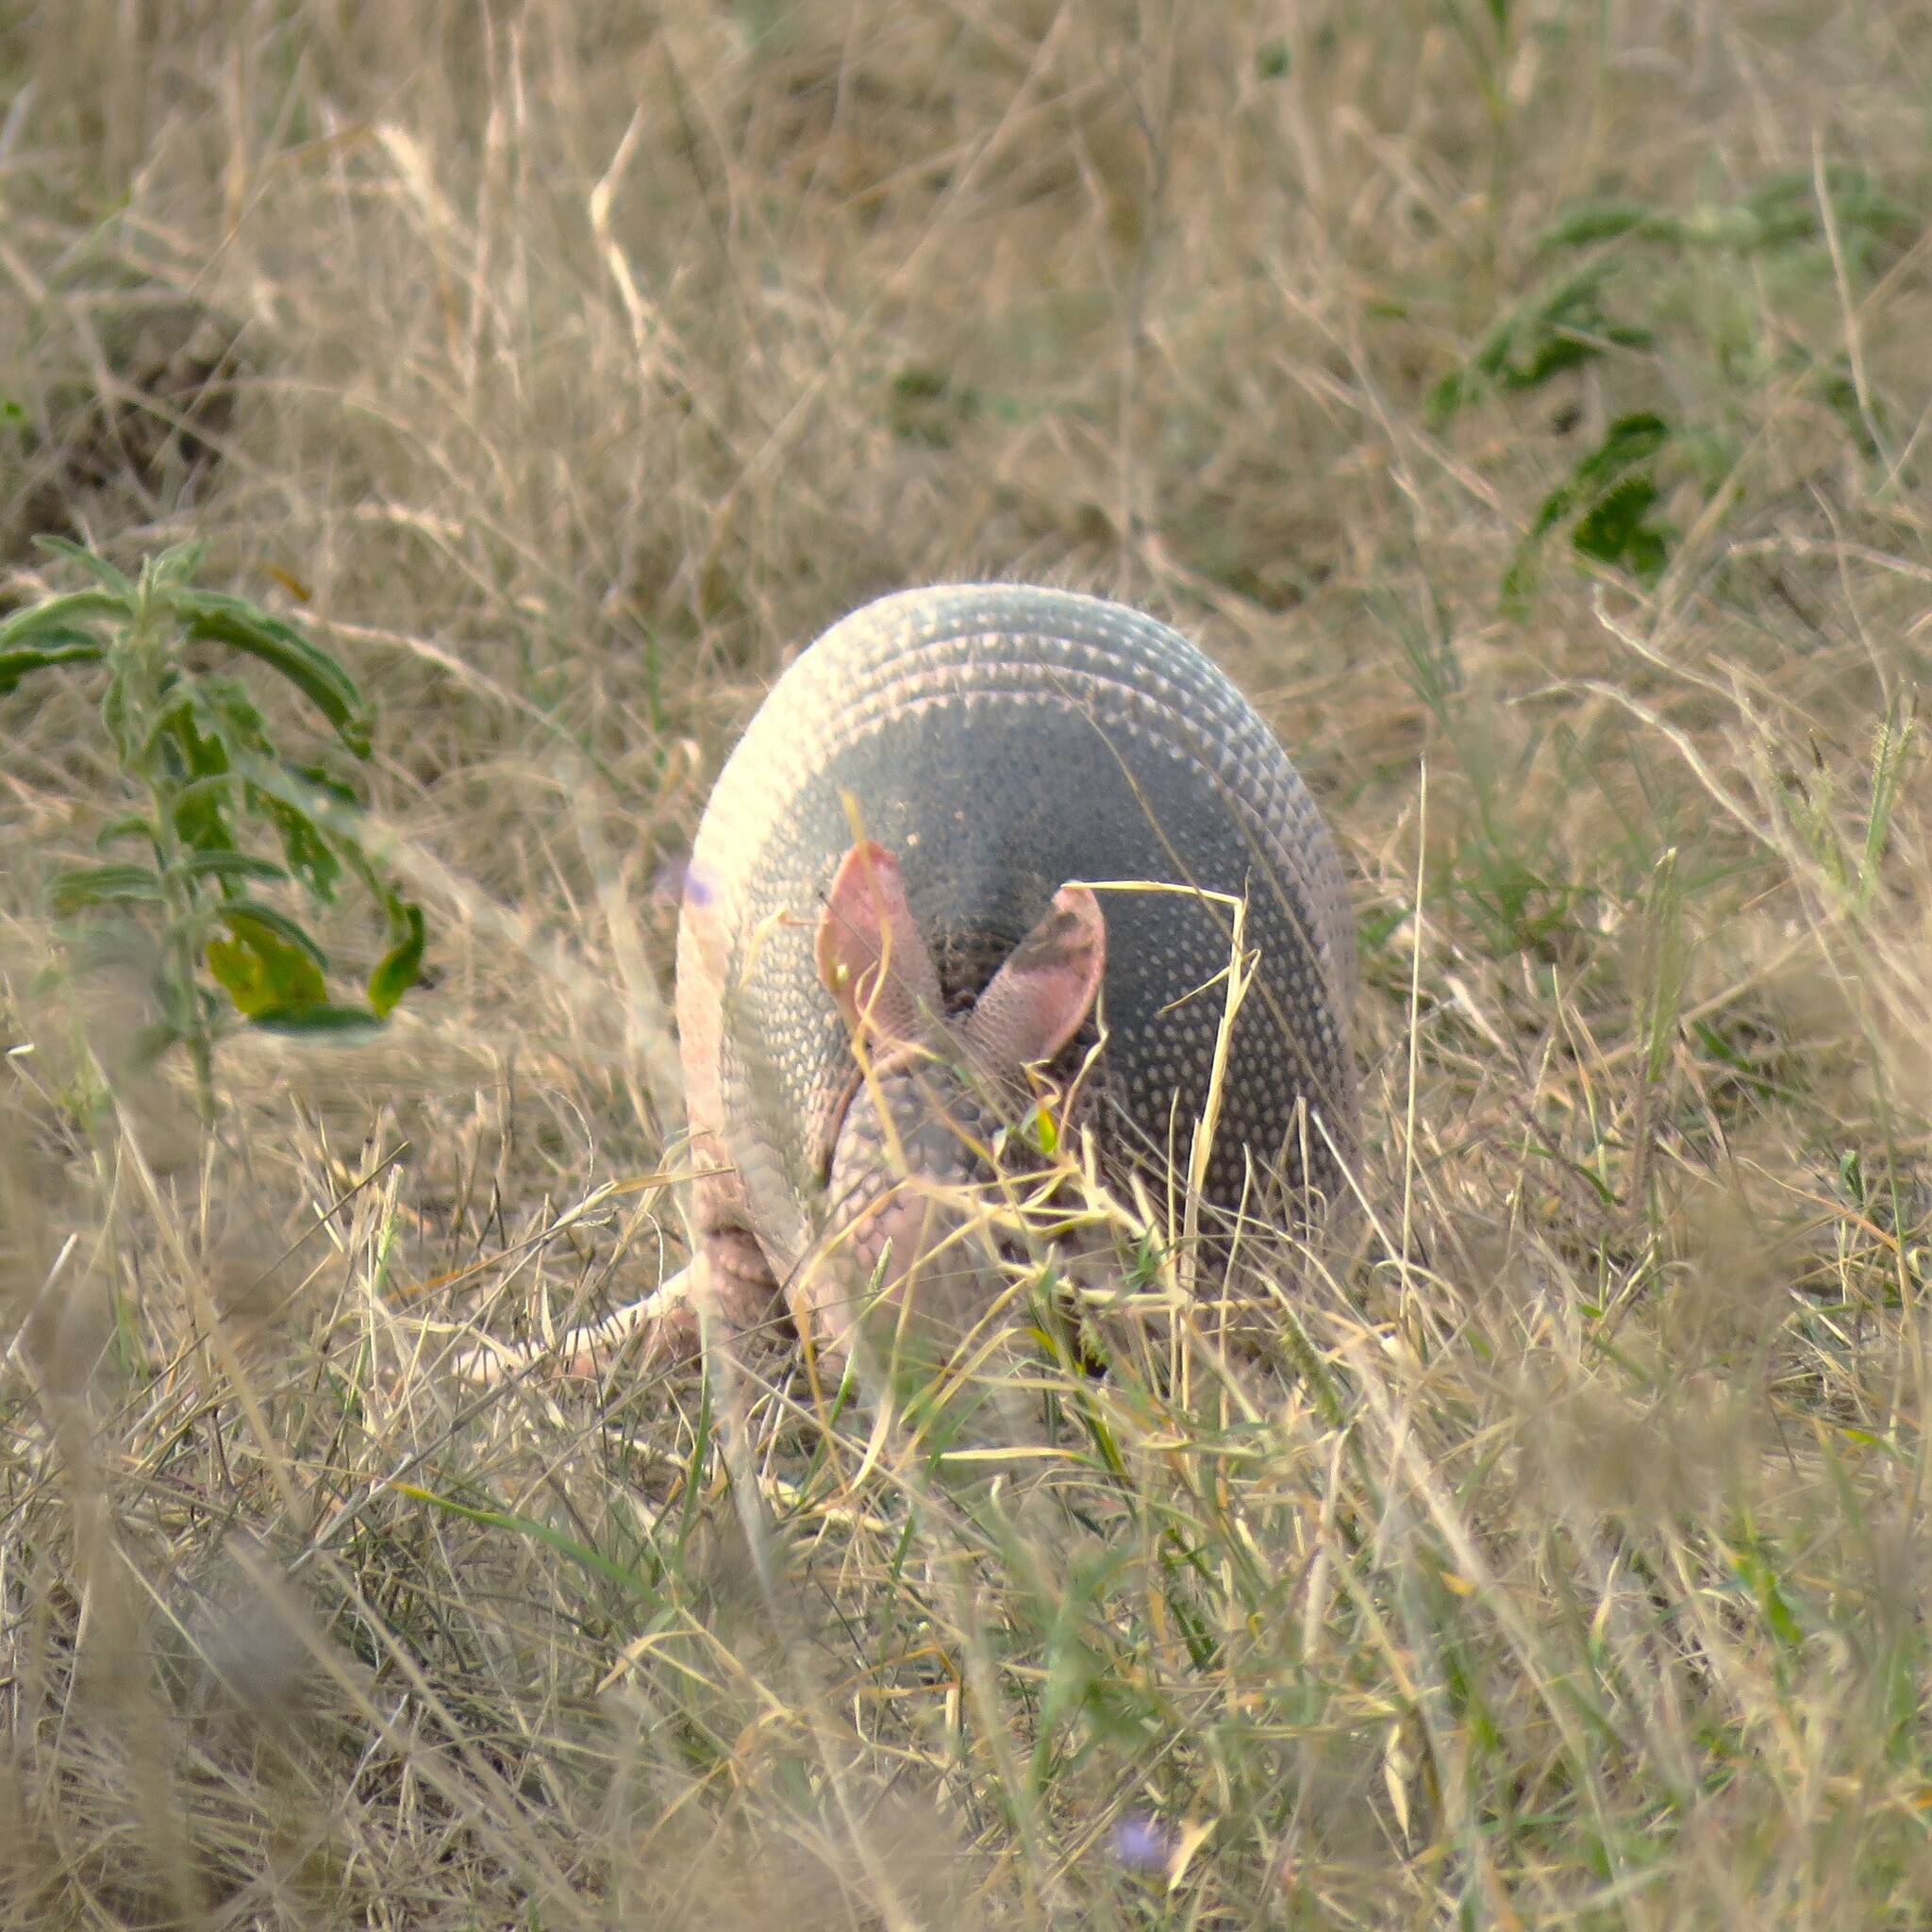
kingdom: Animalia
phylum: Chordata
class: Mammalia
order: Cingulata
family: Dasypodidae
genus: Dasypus
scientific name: Dasypus novemcinctus
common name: Nine-banded armadillo
